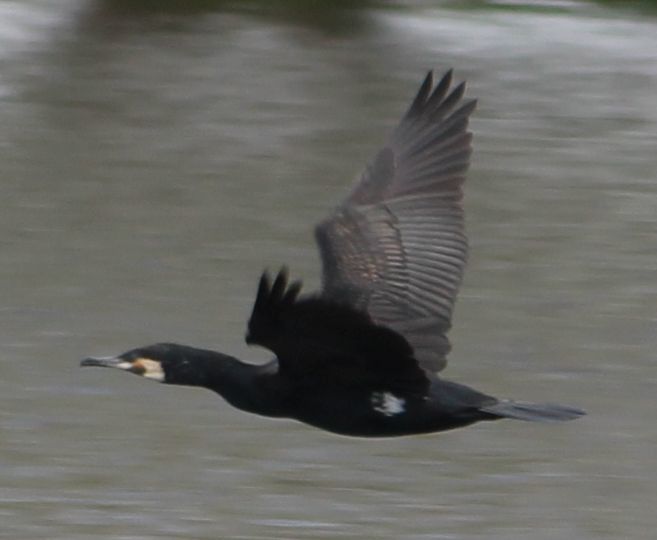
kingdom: Animalia
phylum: Chordata
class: Aves
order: Suliformes
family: Phalacrocoracidae
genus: Phalacrocorax
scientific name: Phalacrocorax carbo
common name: Great cormorant
